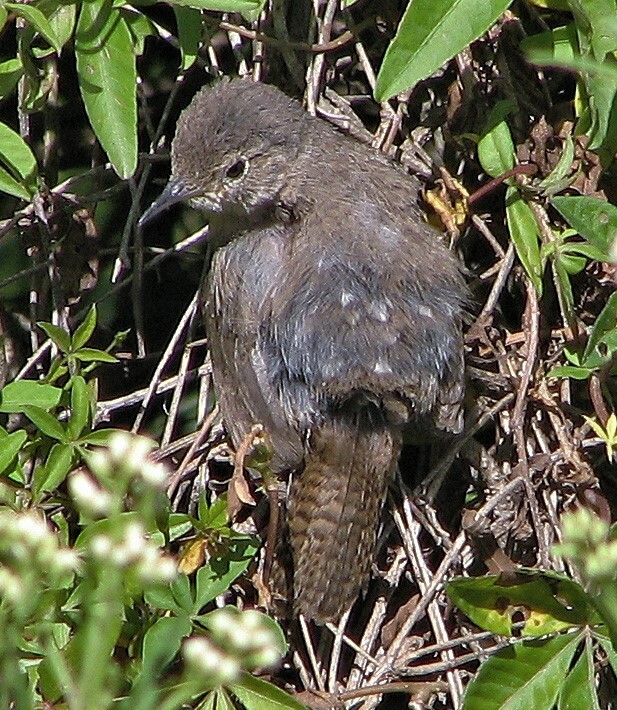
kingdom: Animalia
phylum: Chordata
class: Aves
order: Passeriformes
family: Troglodytidae
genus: Troglodytes
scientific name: Troglodytes aedon
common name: House wren
